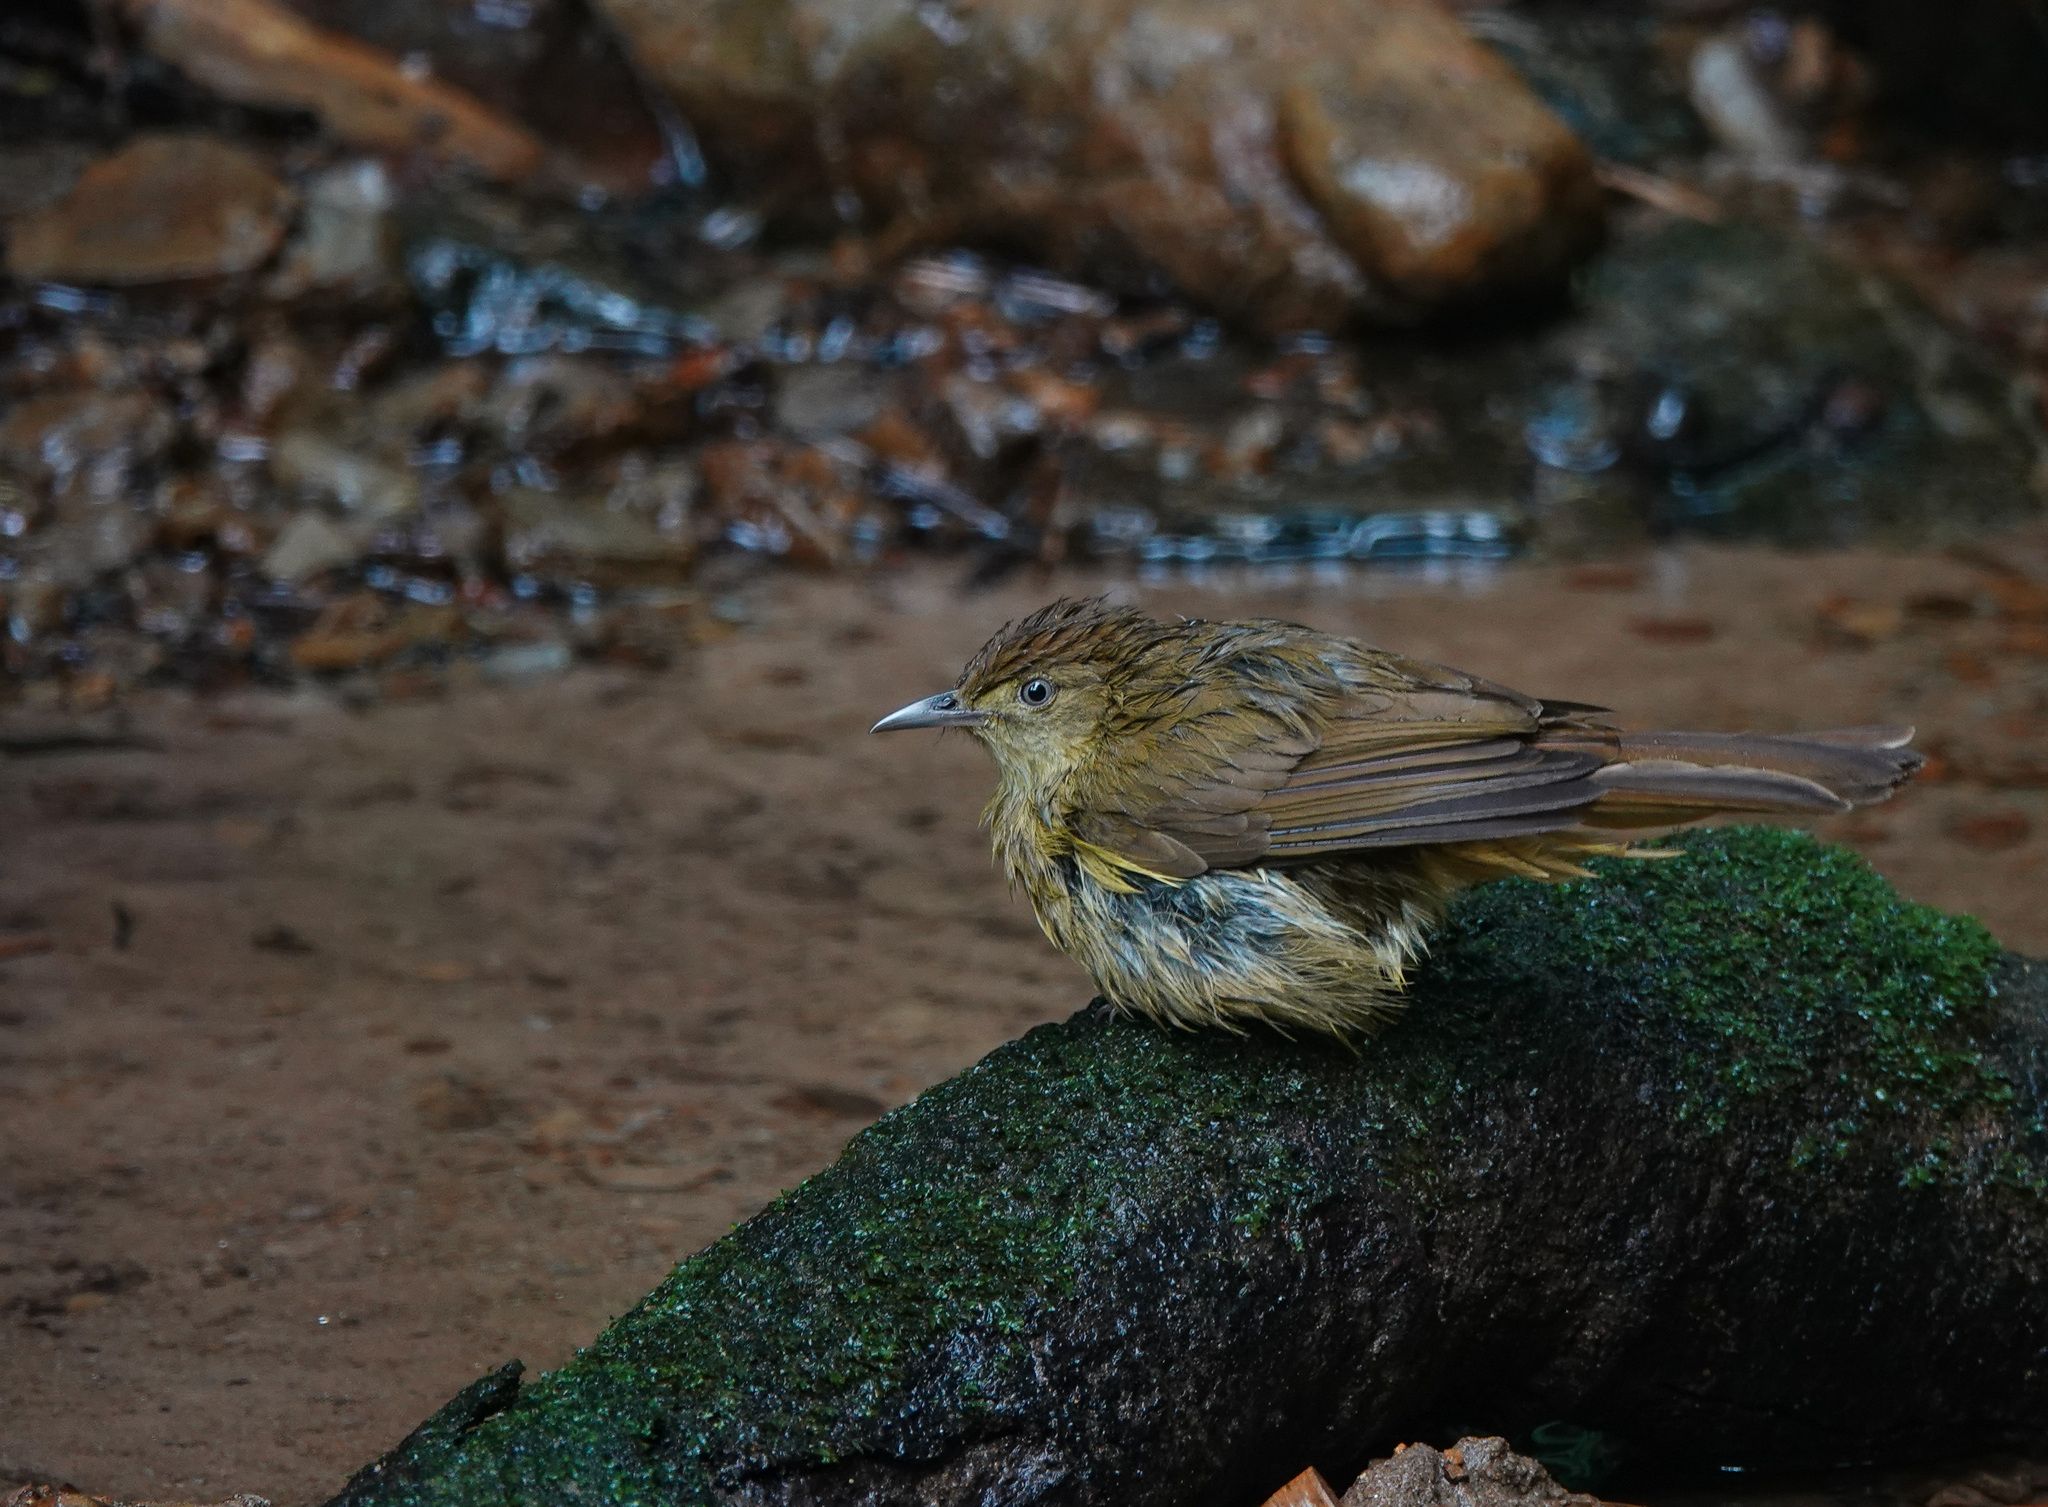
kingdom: Animalia
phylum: Chordata
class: Aves
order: Passeriformes
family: Pycnonotidae
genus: Iole
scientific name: Iole virescens
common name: Olive bulbul
